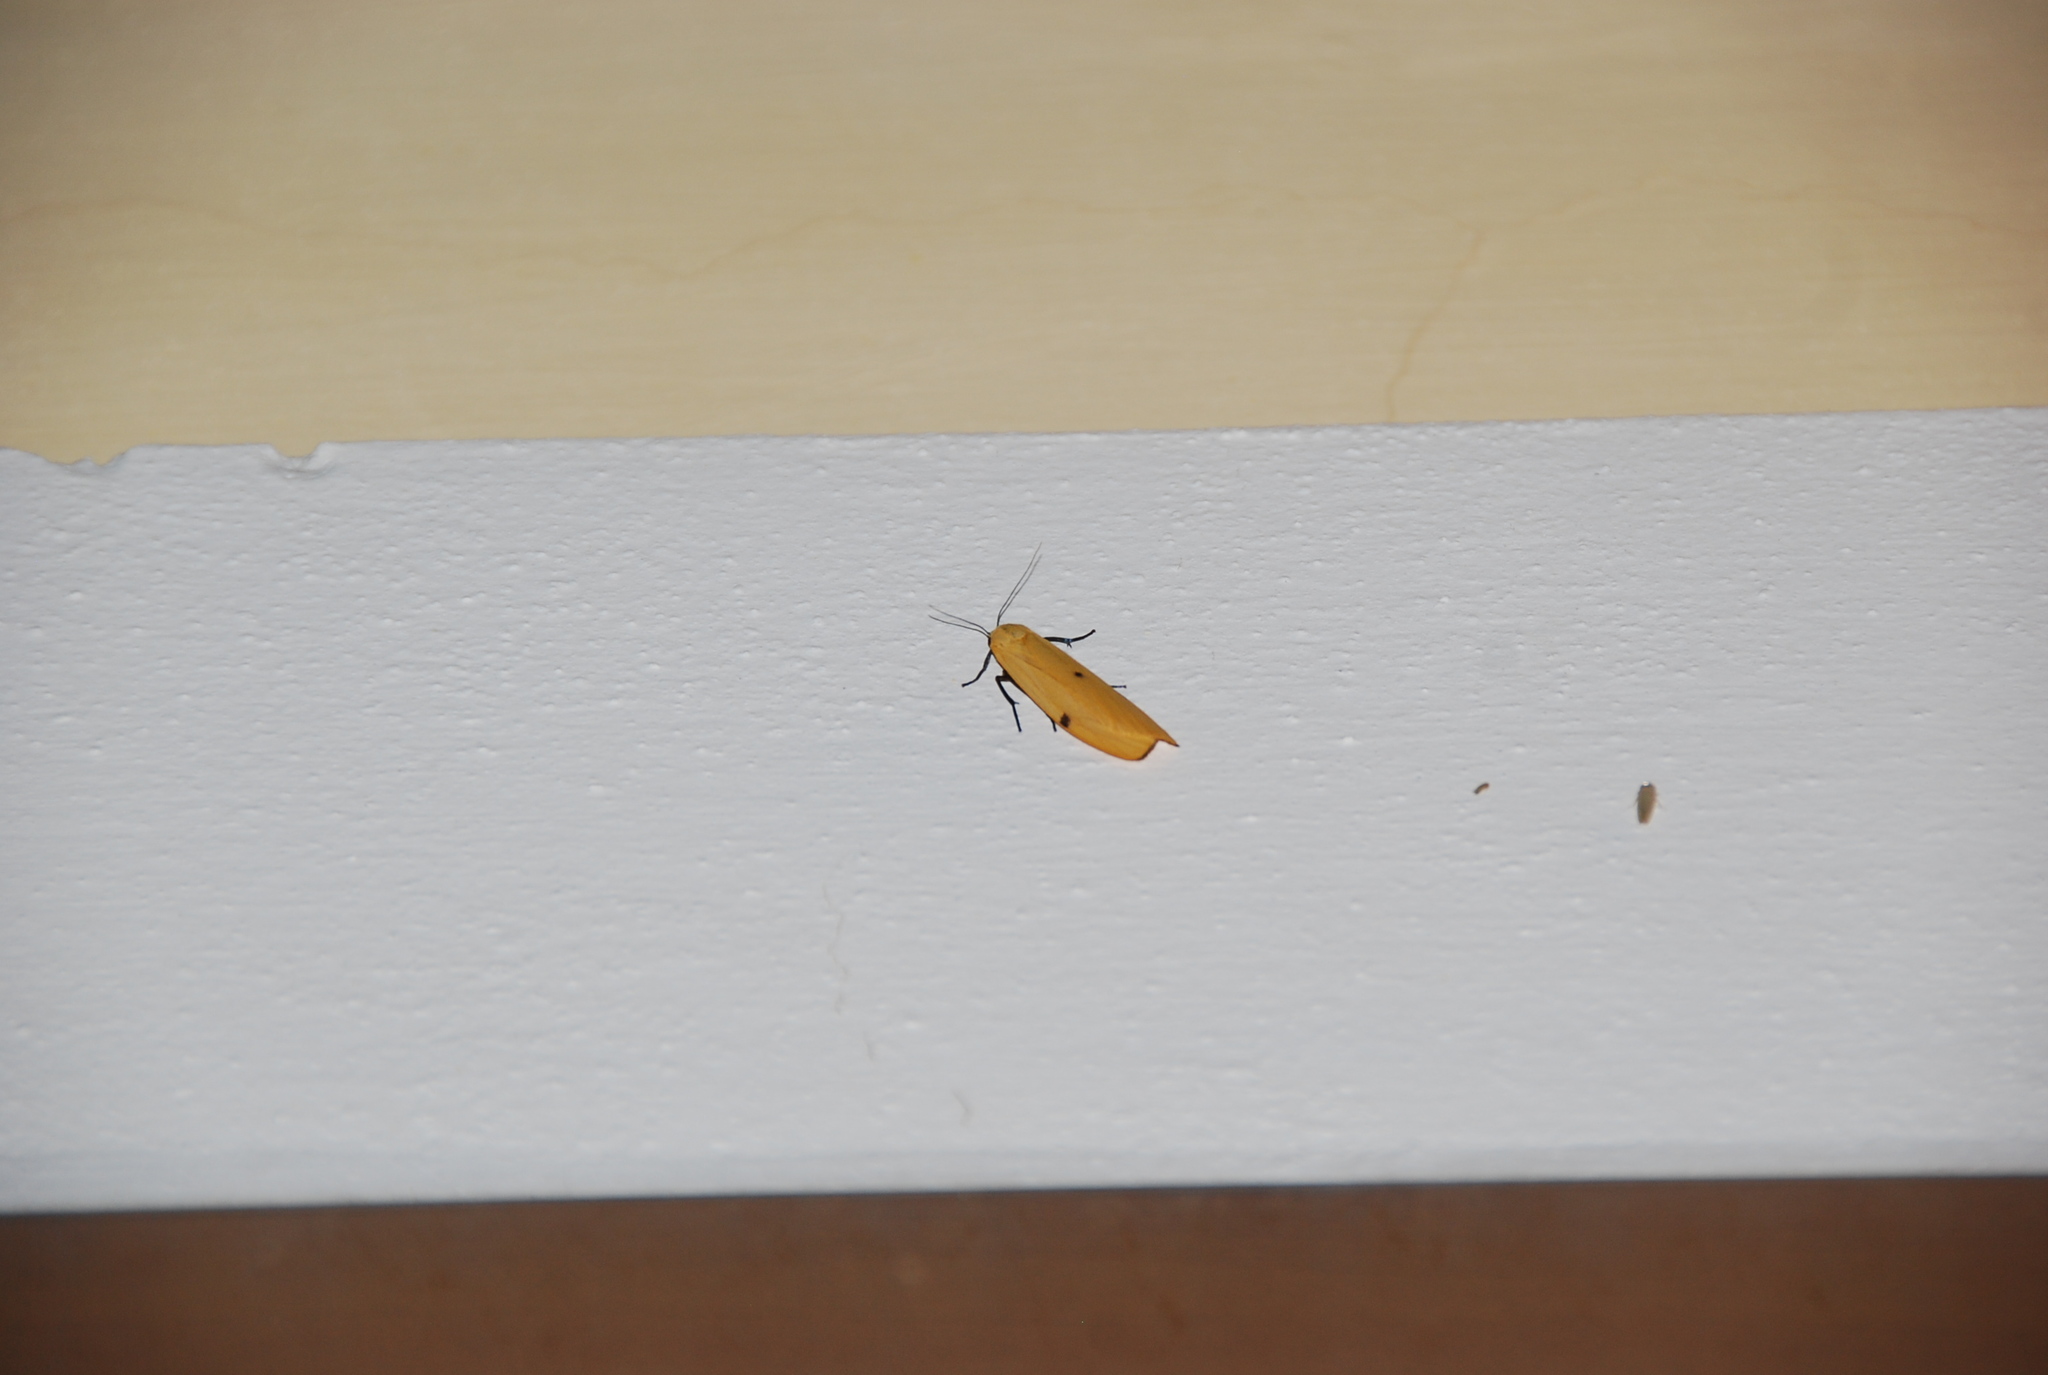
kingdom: Animalia
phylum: Arthropoda
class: Insecta
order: Lepidoptera
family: Erebidae
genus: Lithosia
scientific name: Lithosia quadra
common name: Four-spotted footman
